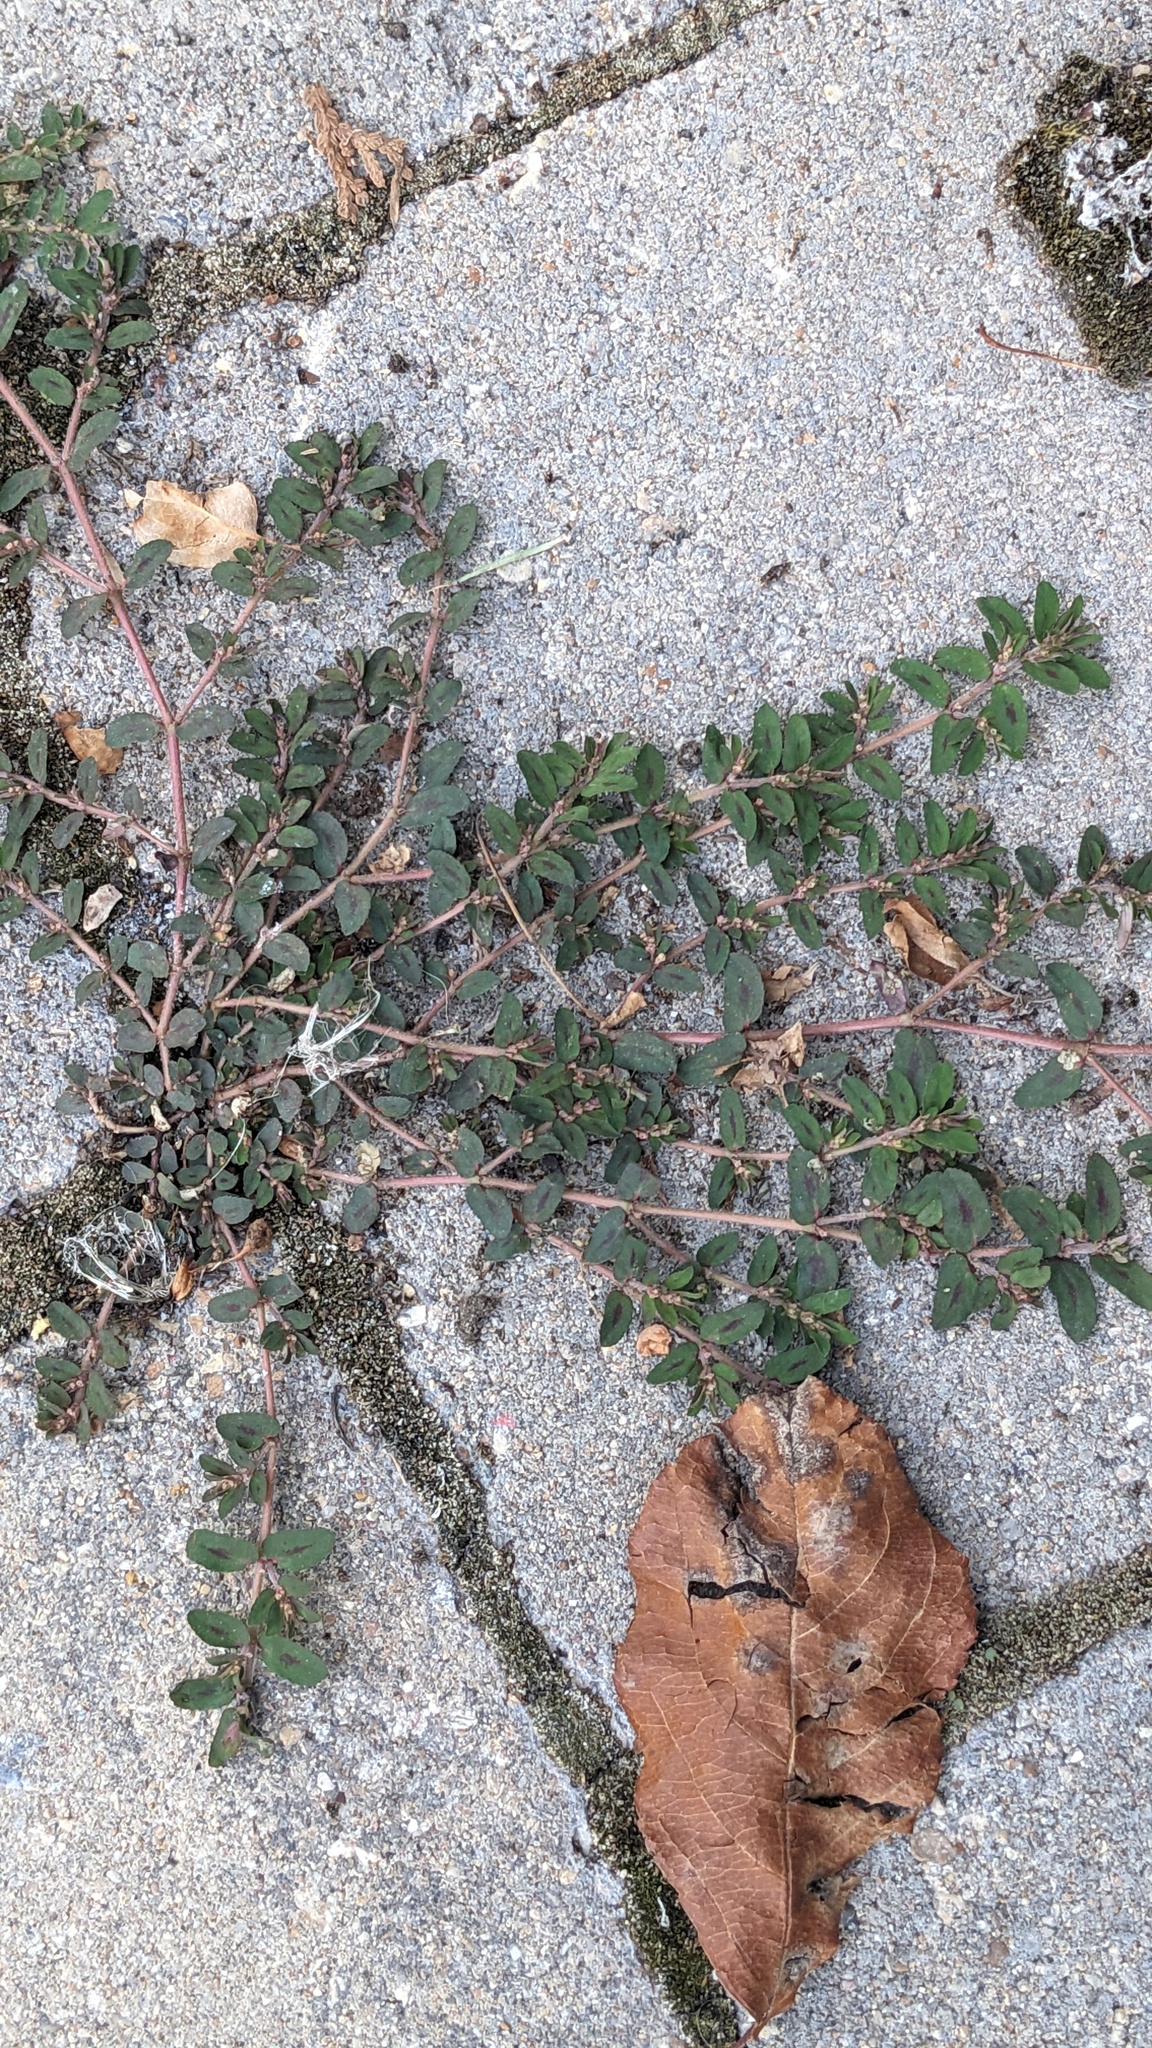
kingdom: Plantae
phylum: Tracheophyta
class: Magnoliopsida
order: Malpighiales
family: Euphorbiaceae
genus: Euphorbia
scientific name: Euphorbia maculata
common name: Spotted spurge
